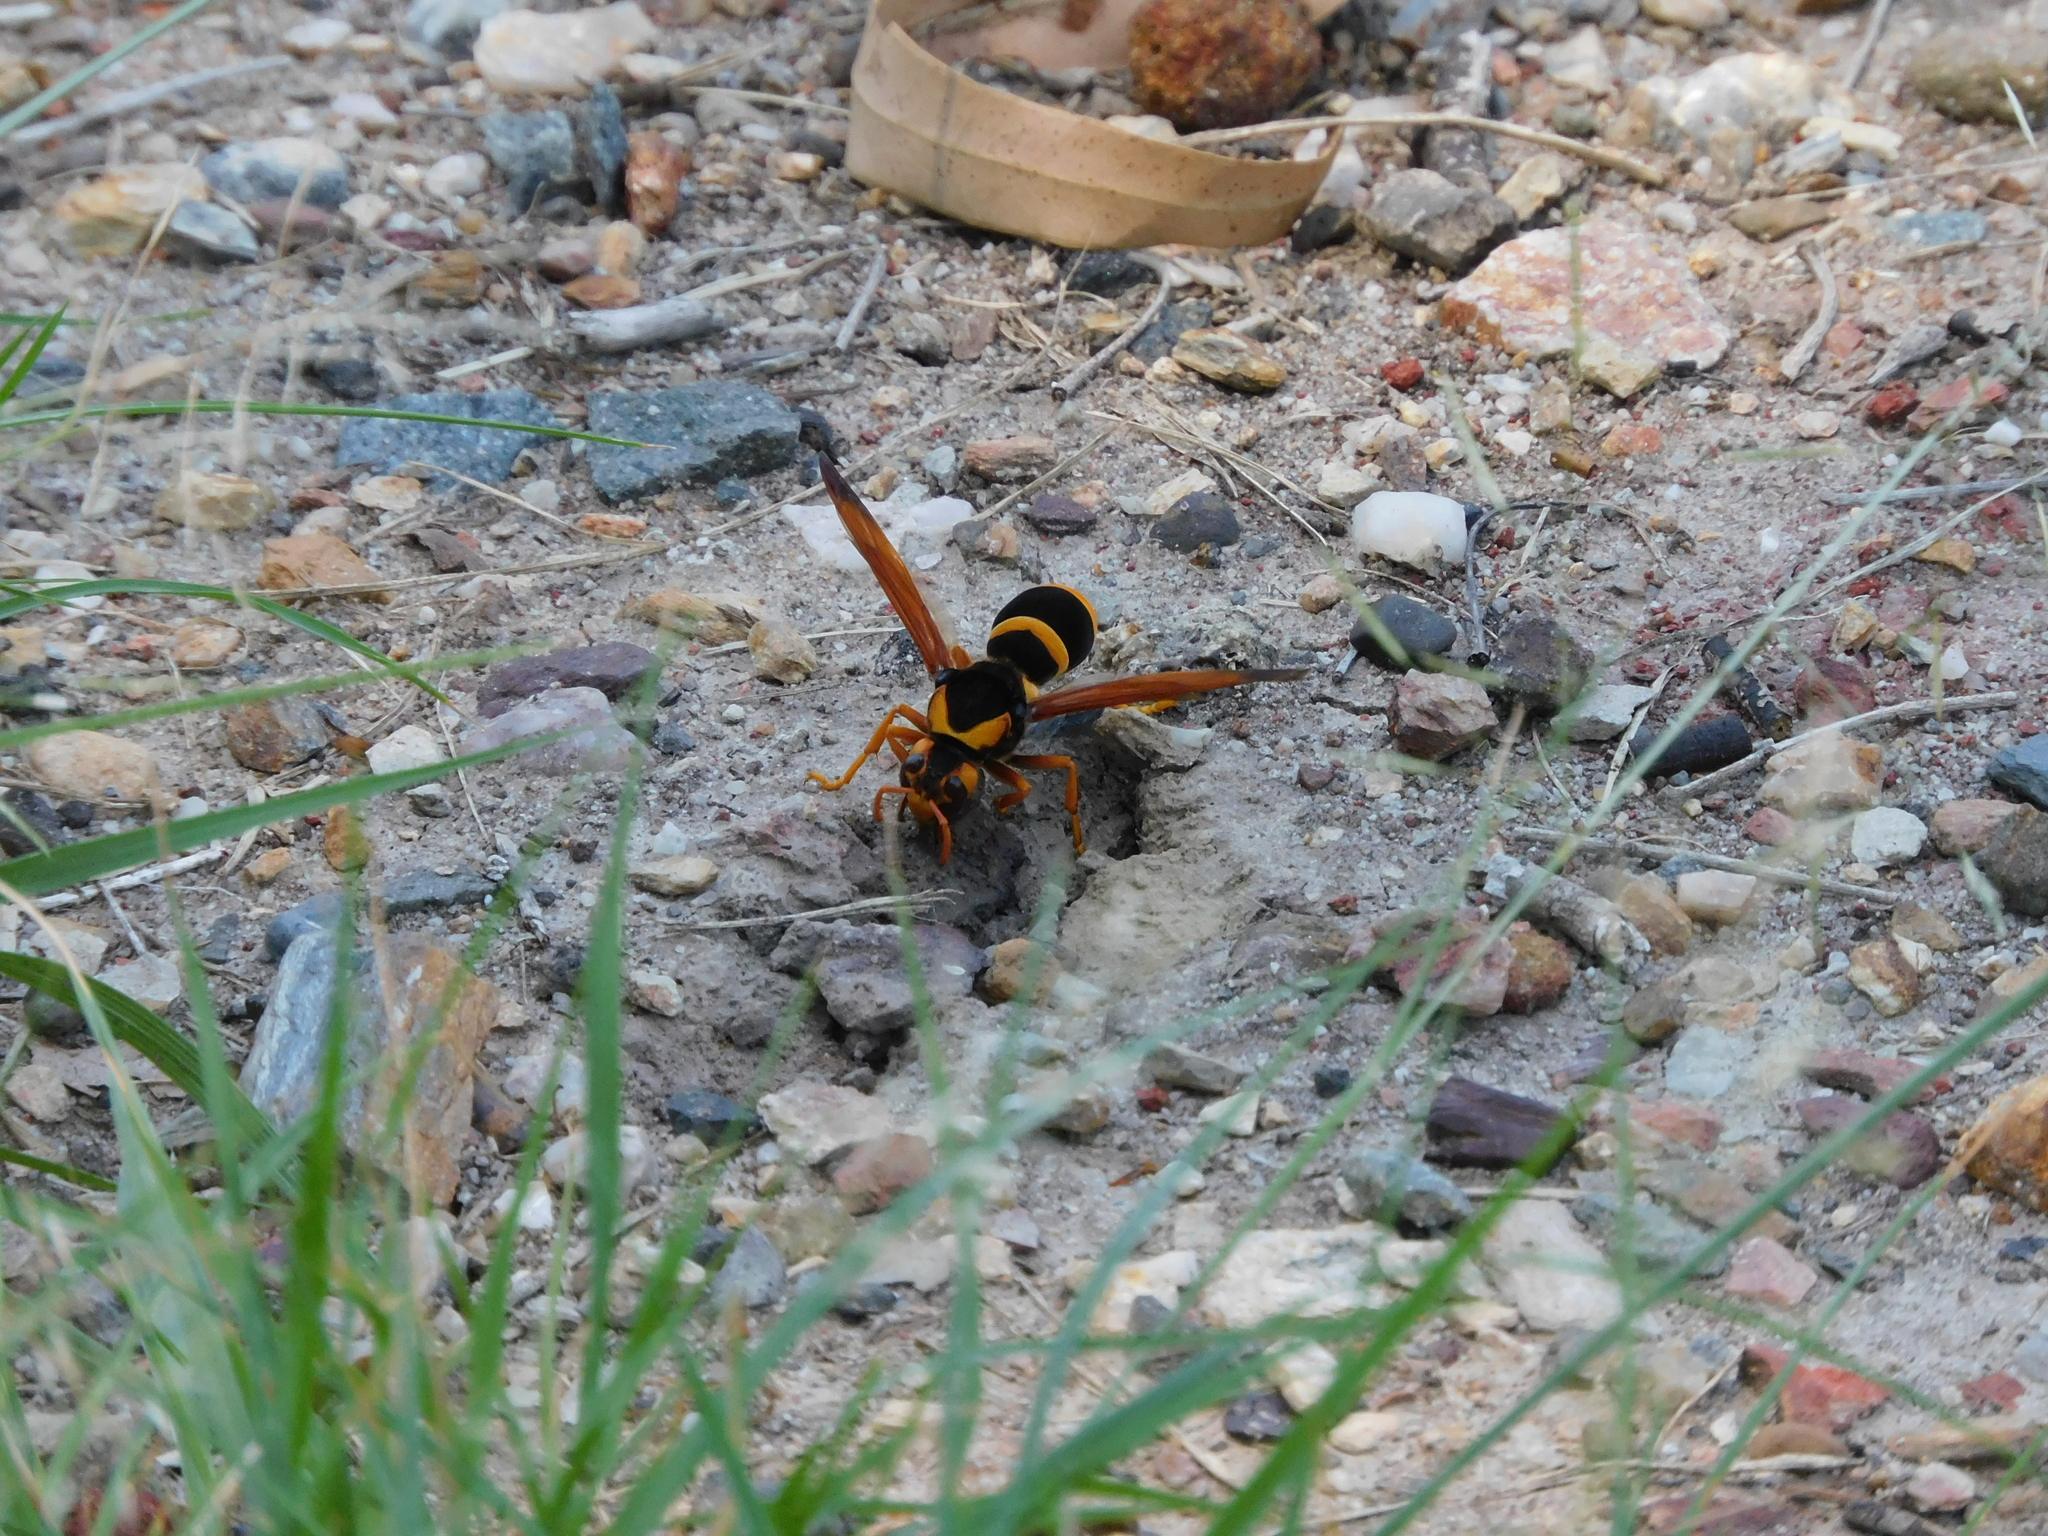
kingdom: Animalia
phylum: Arthropoda
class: Insecta
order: Hymenoptera
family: Eumenidae
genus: Abispa
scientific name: Abispa splendida
